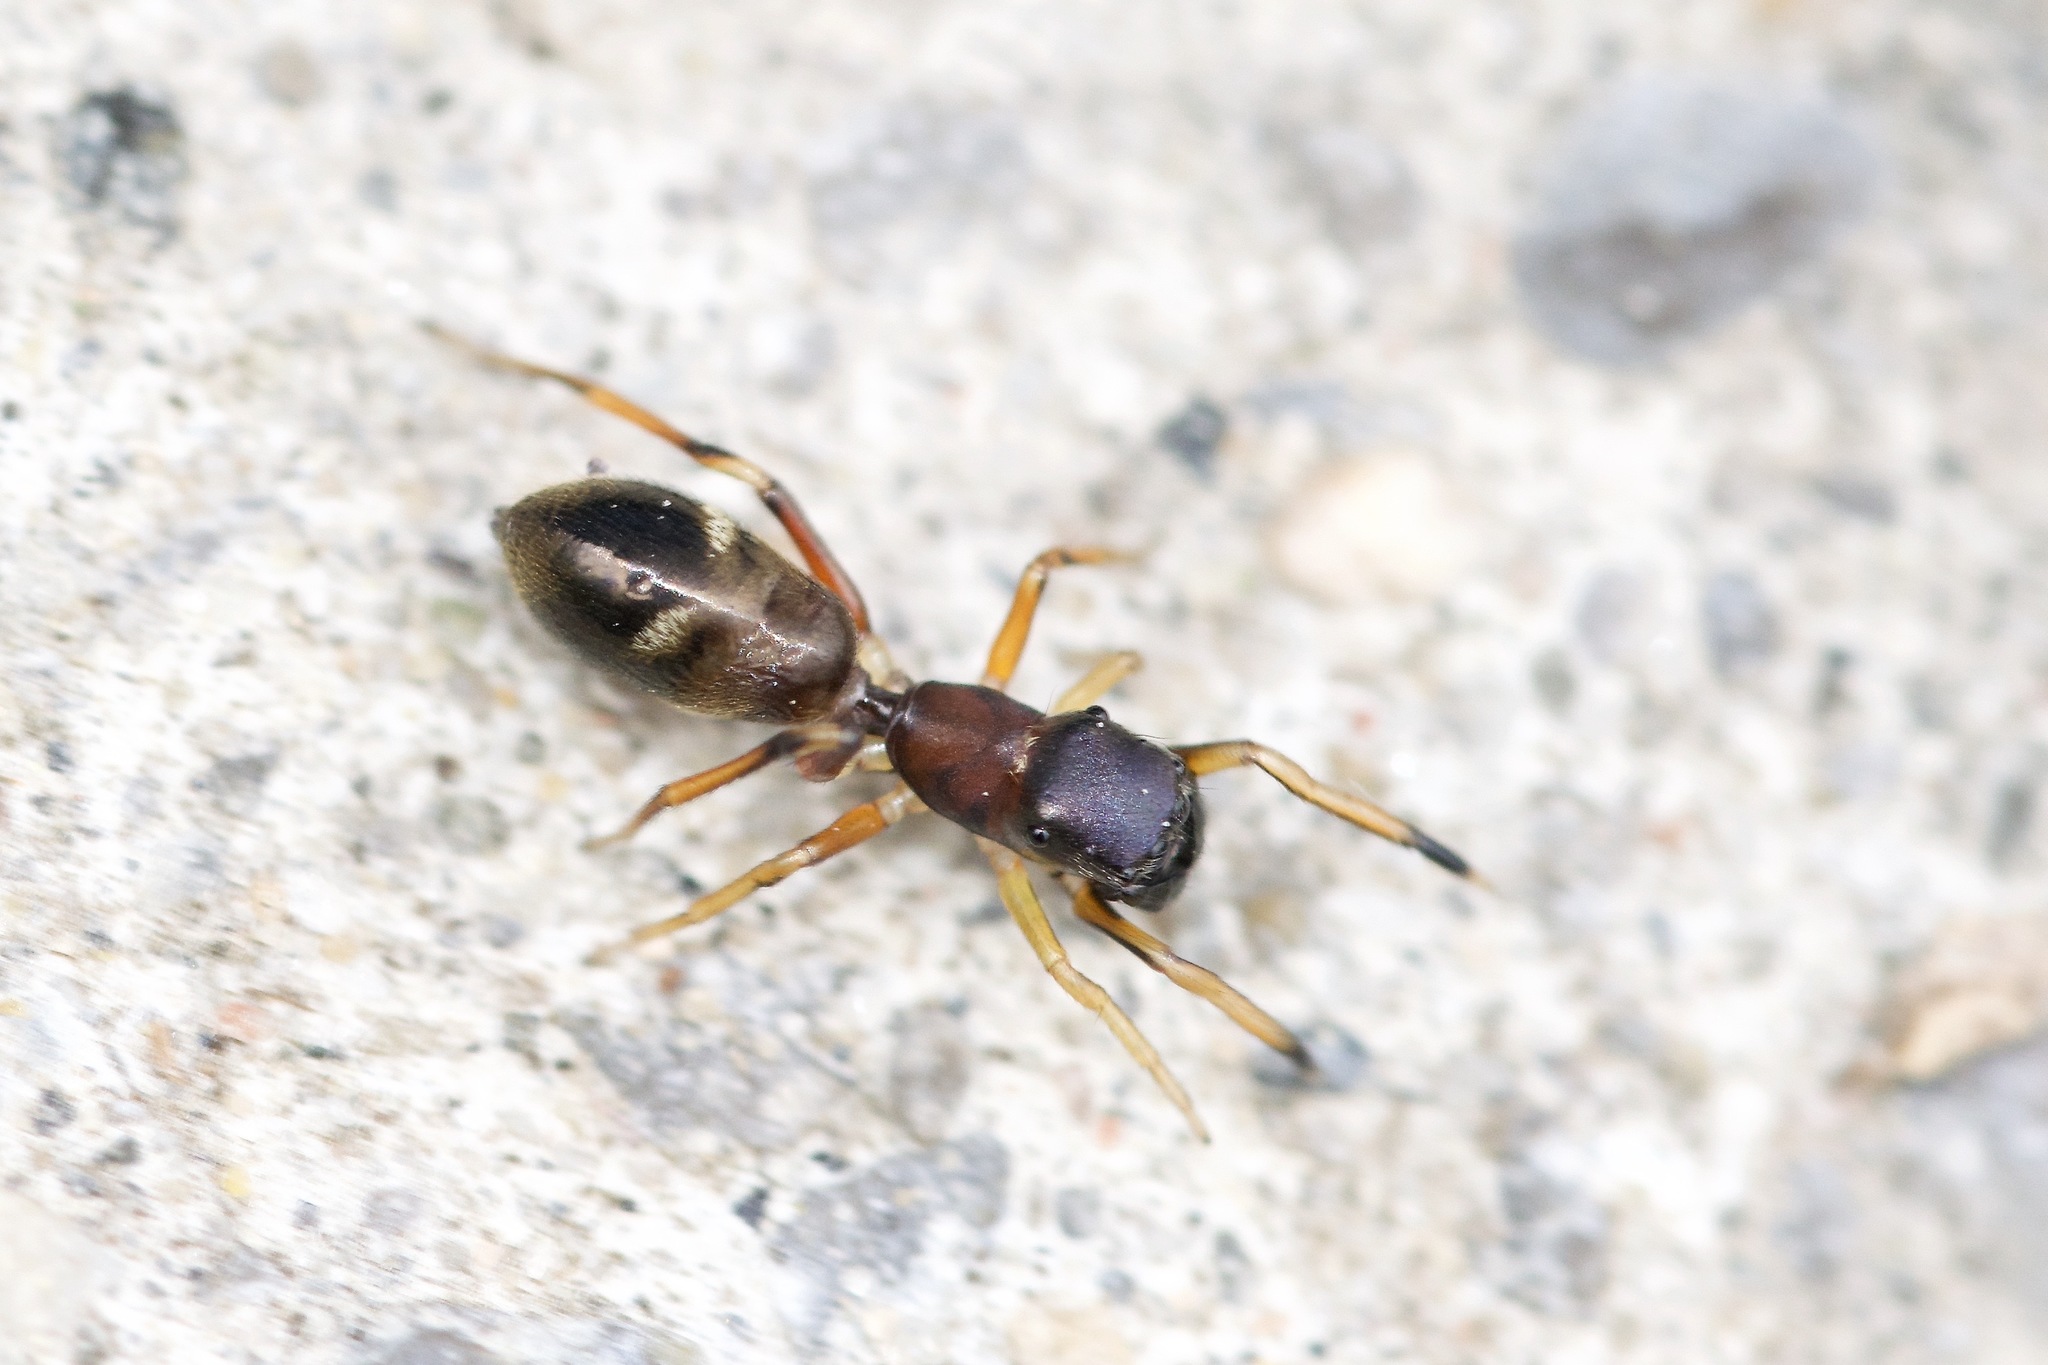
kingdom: Animalia
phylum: Arthropoda
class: Arachnida
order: Araneae
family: Salticidae
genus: Myrmarachne
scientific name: Myrmarachne formicaria
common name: Ant mimic jumping spider
